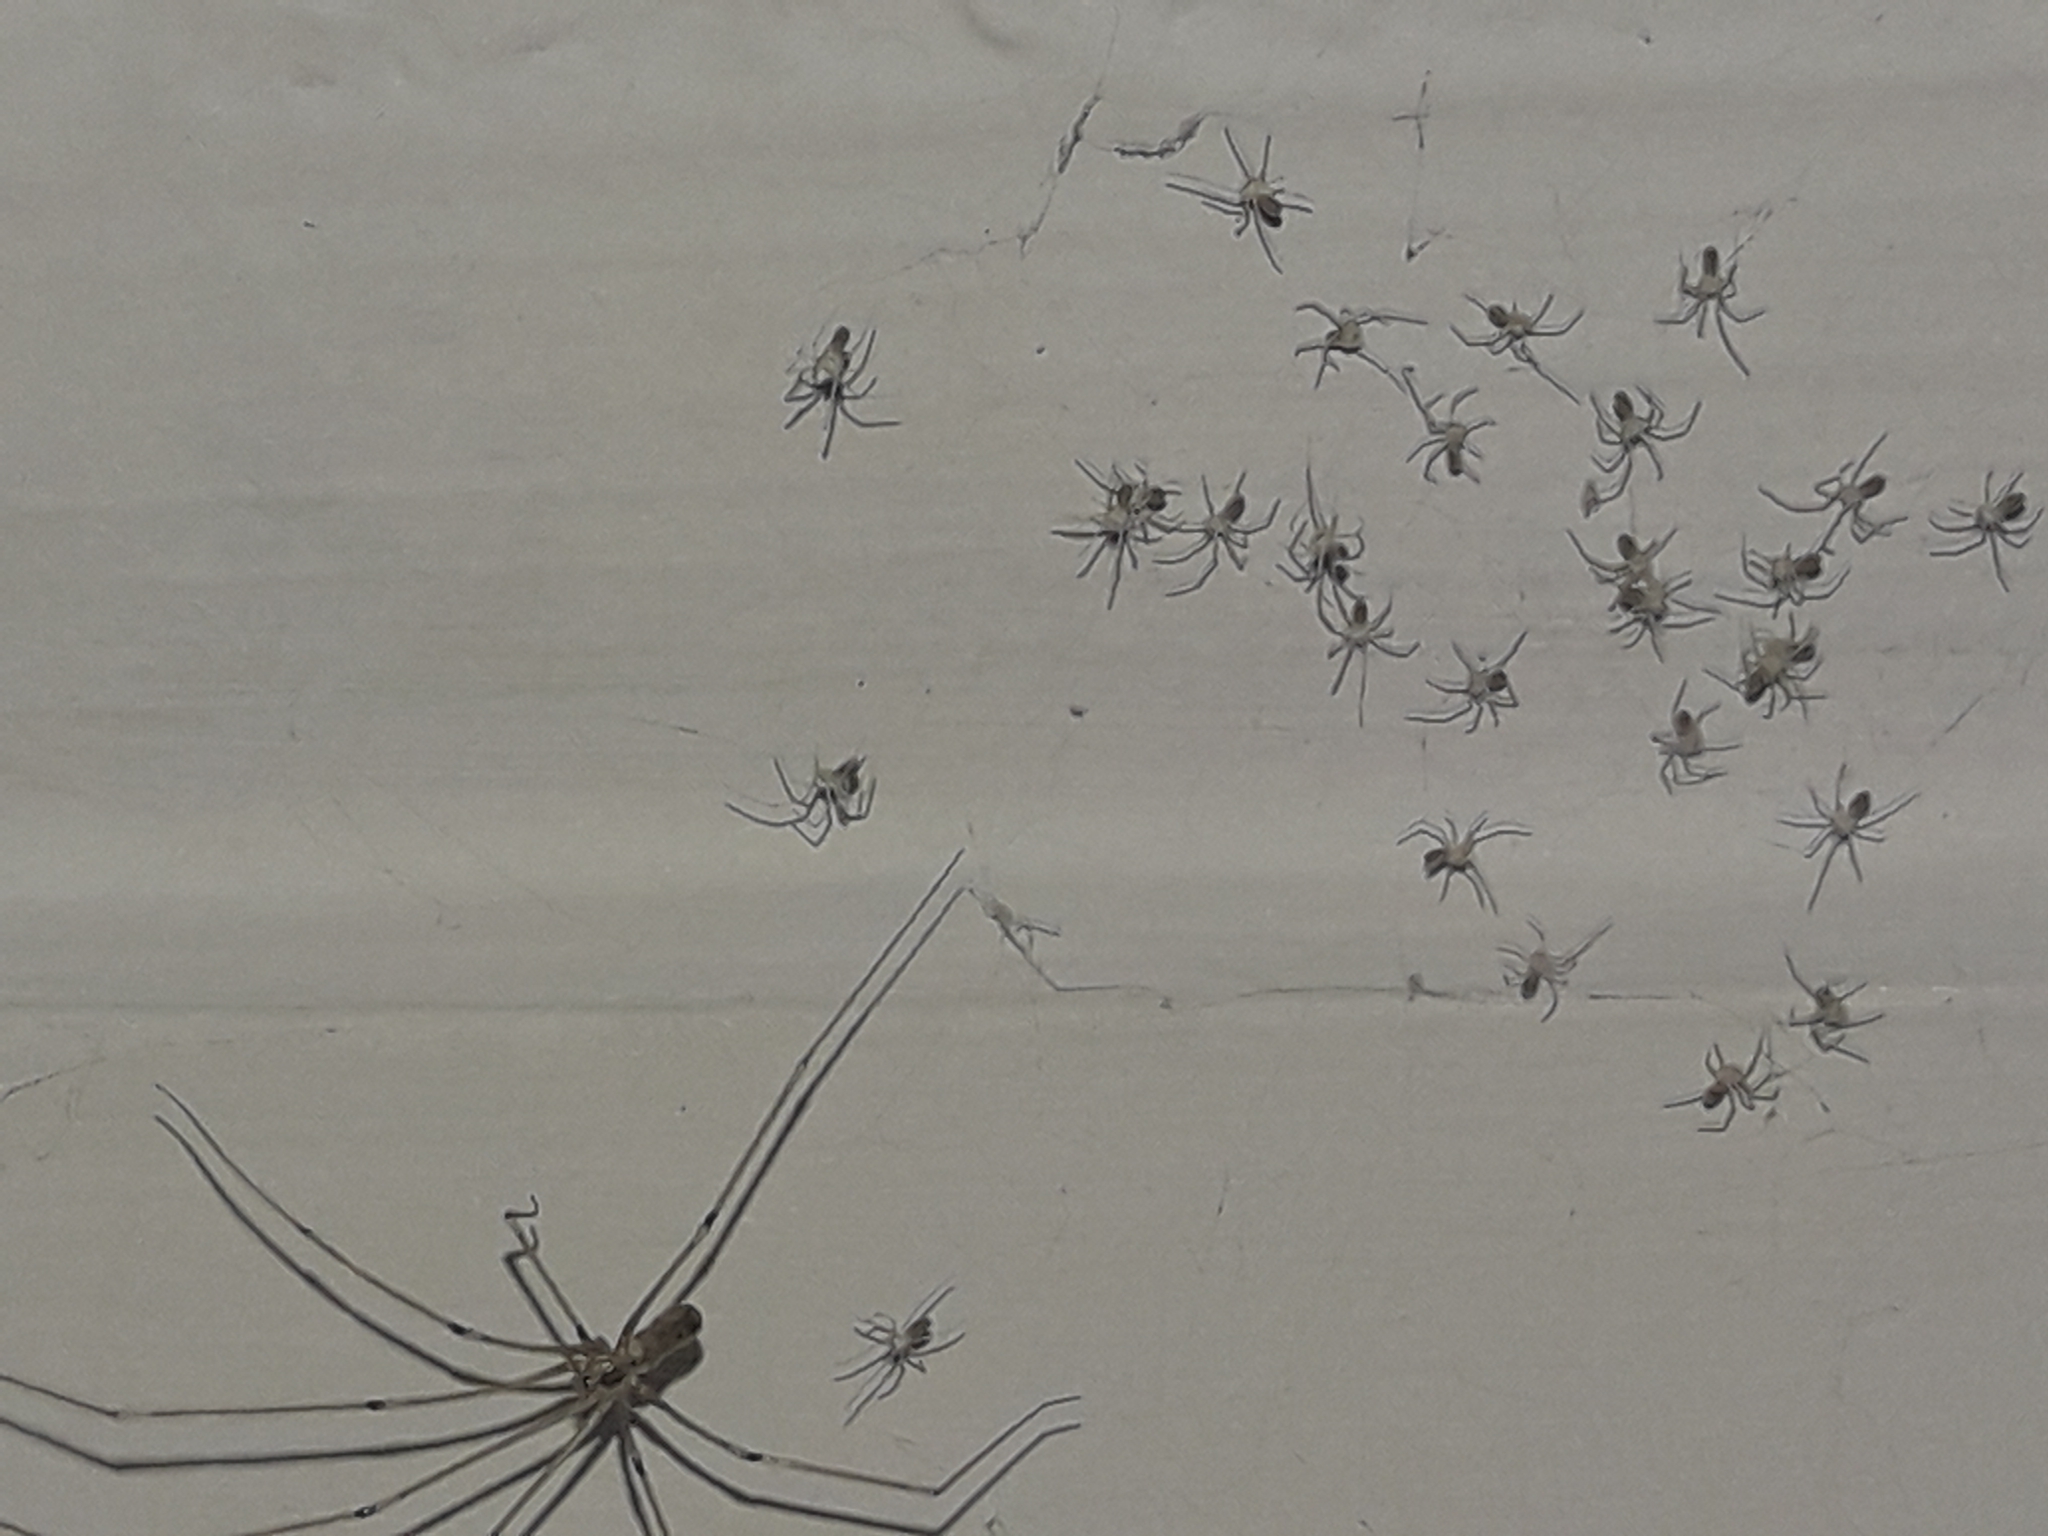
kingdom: Animalia
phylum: Arthropoda
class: Arachnida
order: Araneae
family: Pholcidae
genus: Pholcus
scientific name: Pholcus phalangioides
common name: Longbodied cellar spider
